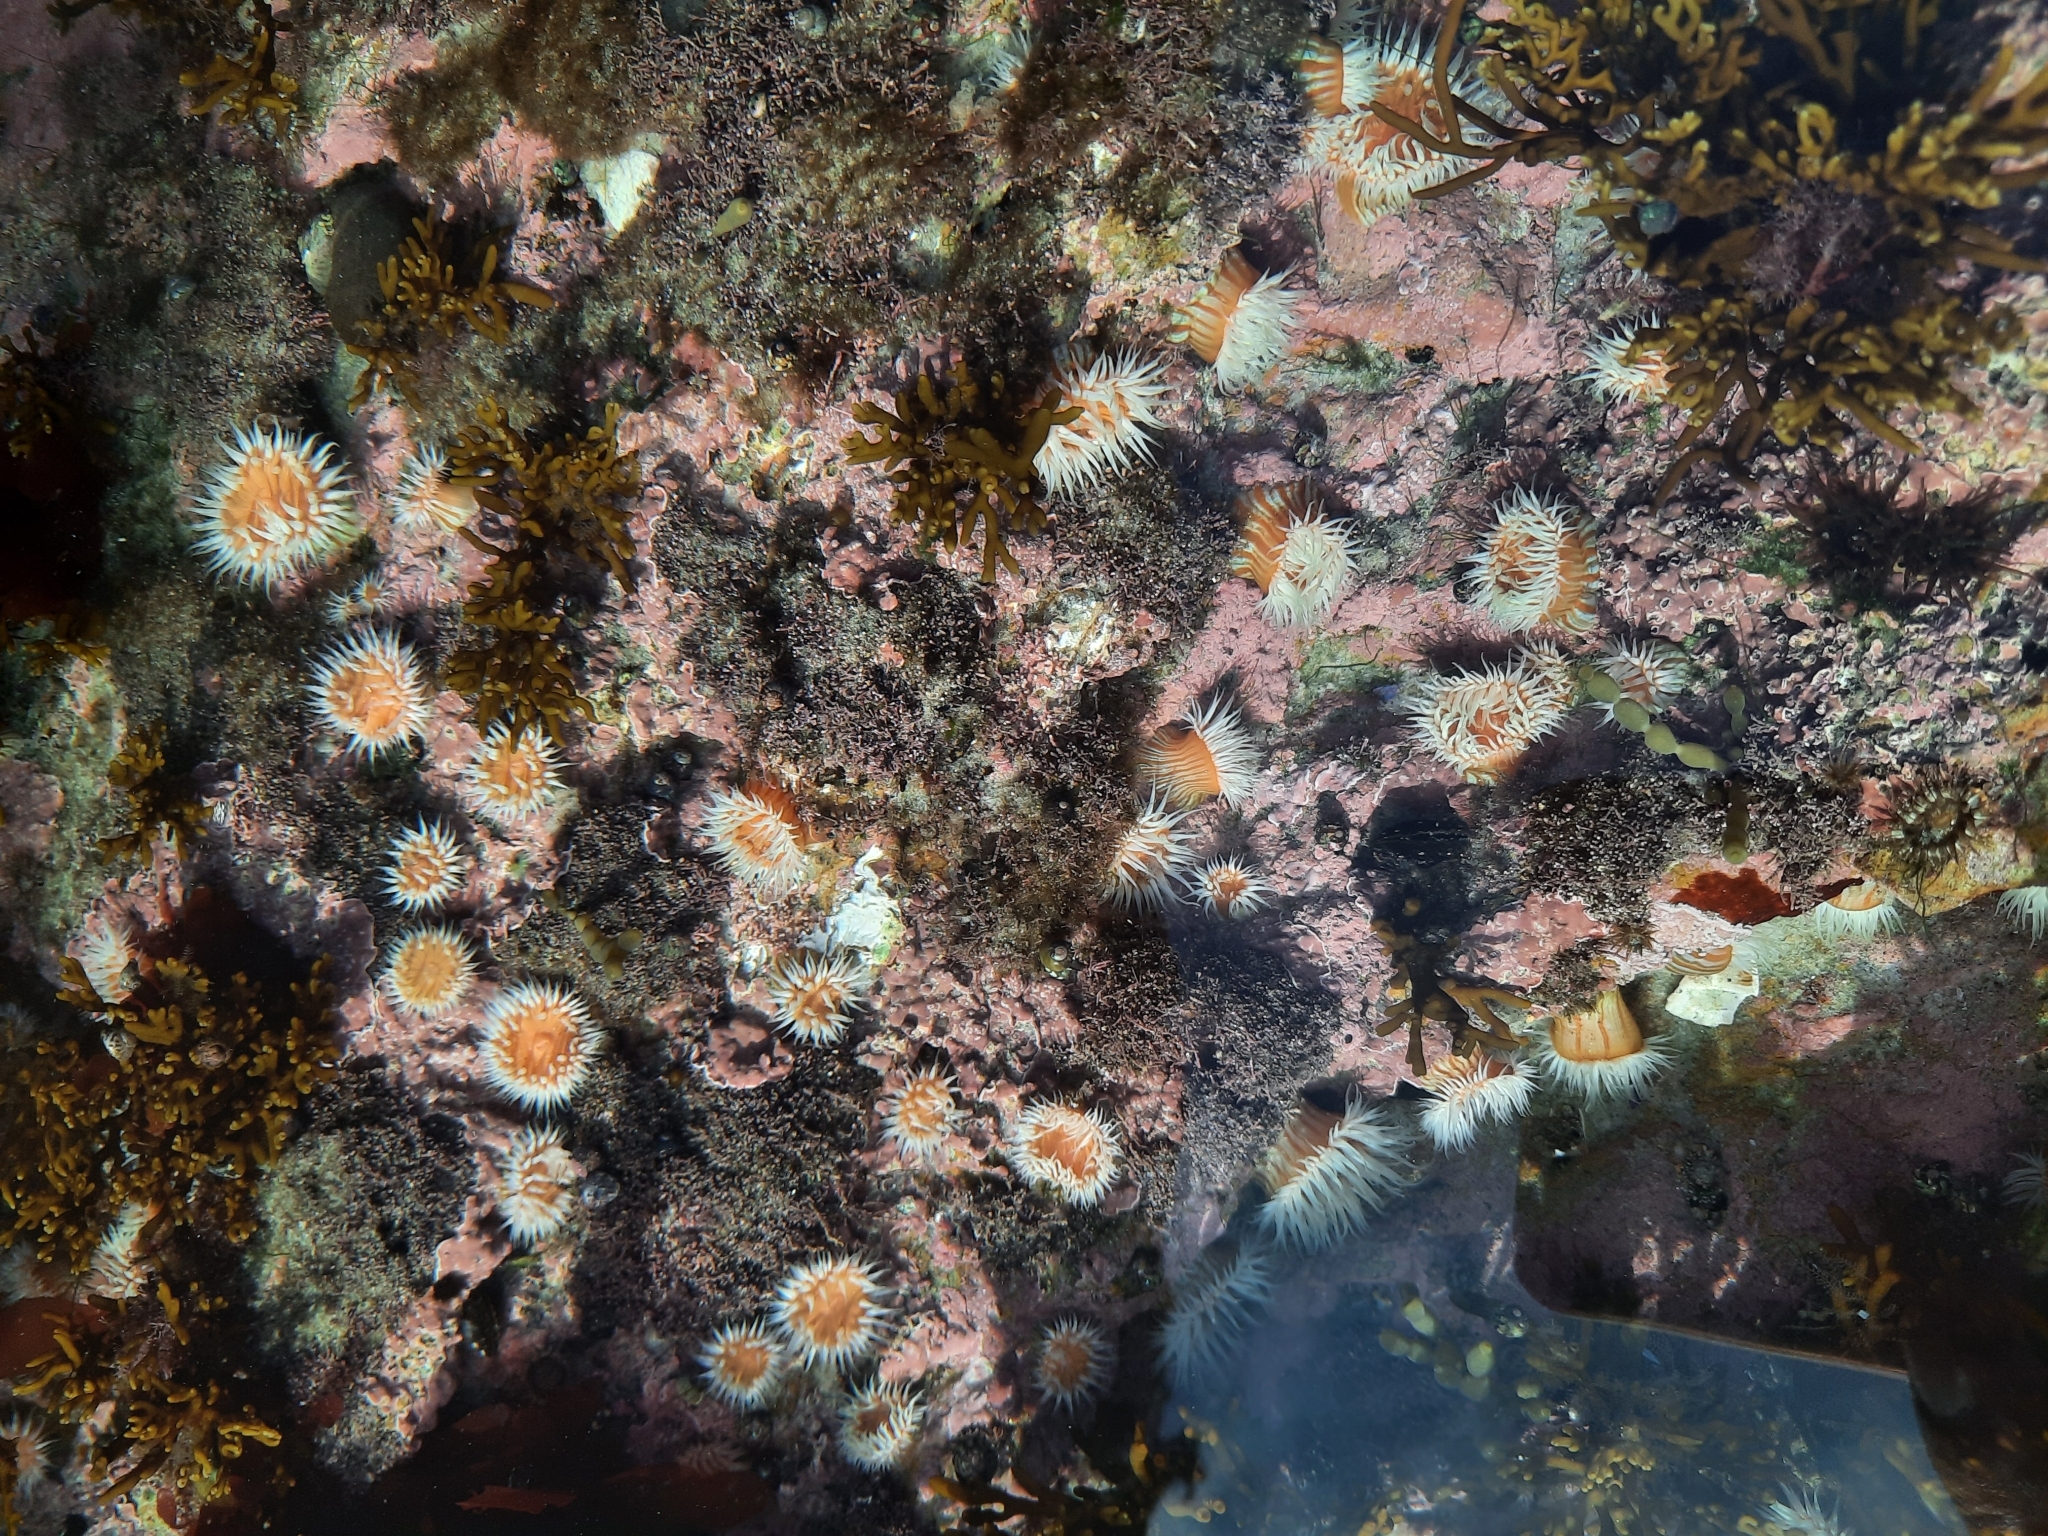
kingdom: Animalia
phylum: Cnidaria
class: Anthozoa
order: Actiniaria
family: Sagartiidae
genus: Anthothoe
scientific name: Anthothoe albocincta
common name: Orange striped anemone
